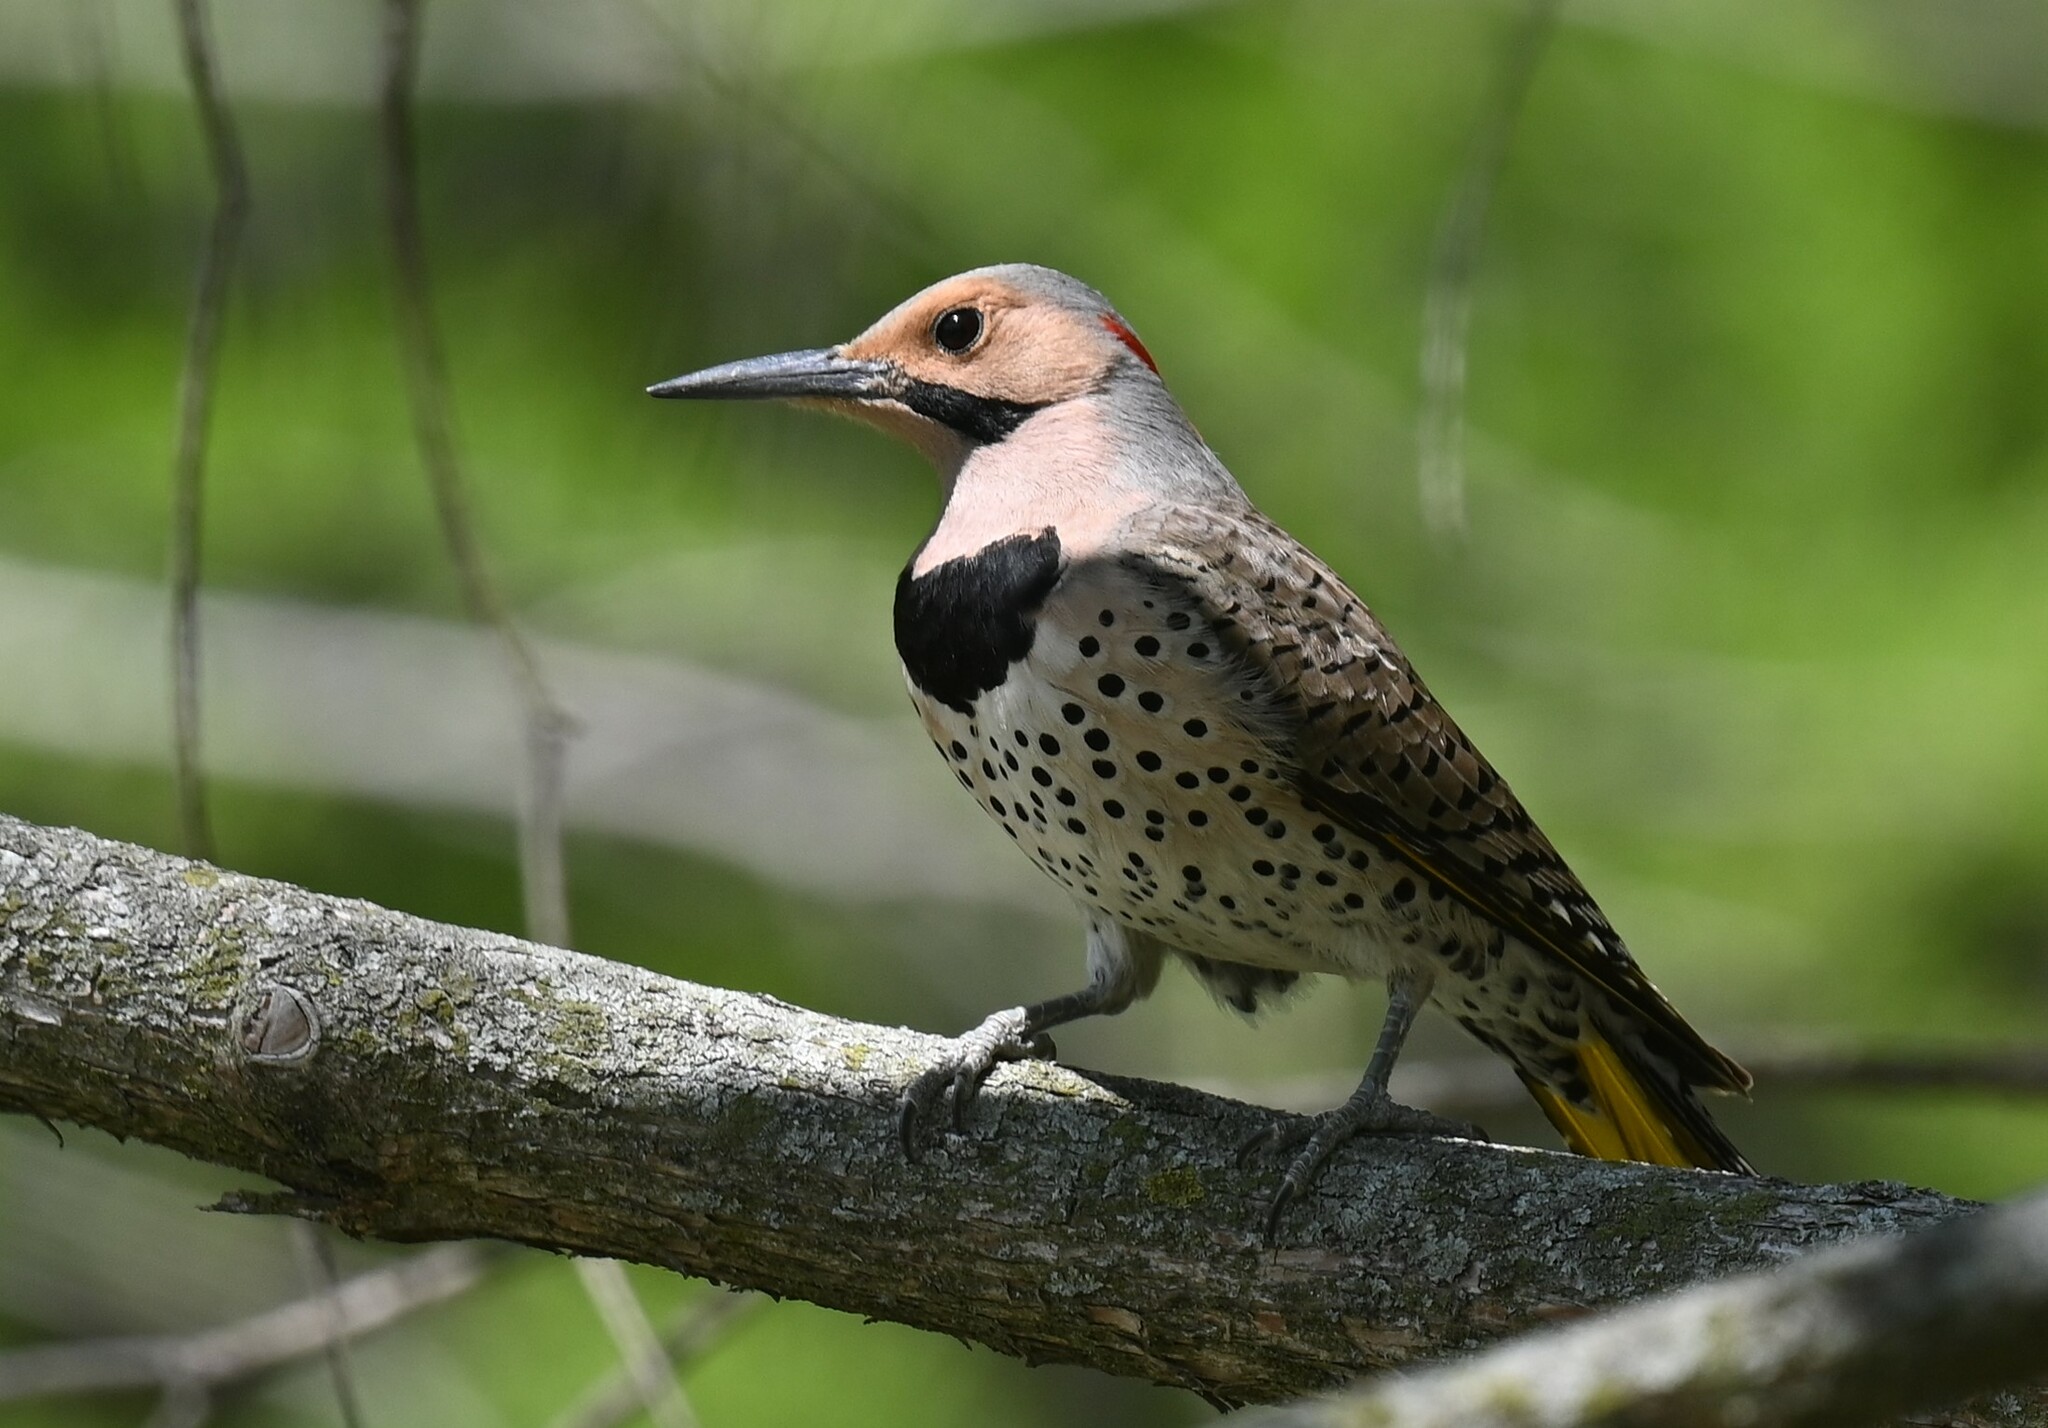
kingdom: Animalia
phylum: Chordata
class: Aves
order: Piciformes
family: Picidae
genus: Colaptes
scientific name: Colaptes auratus
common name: Northern flicker
